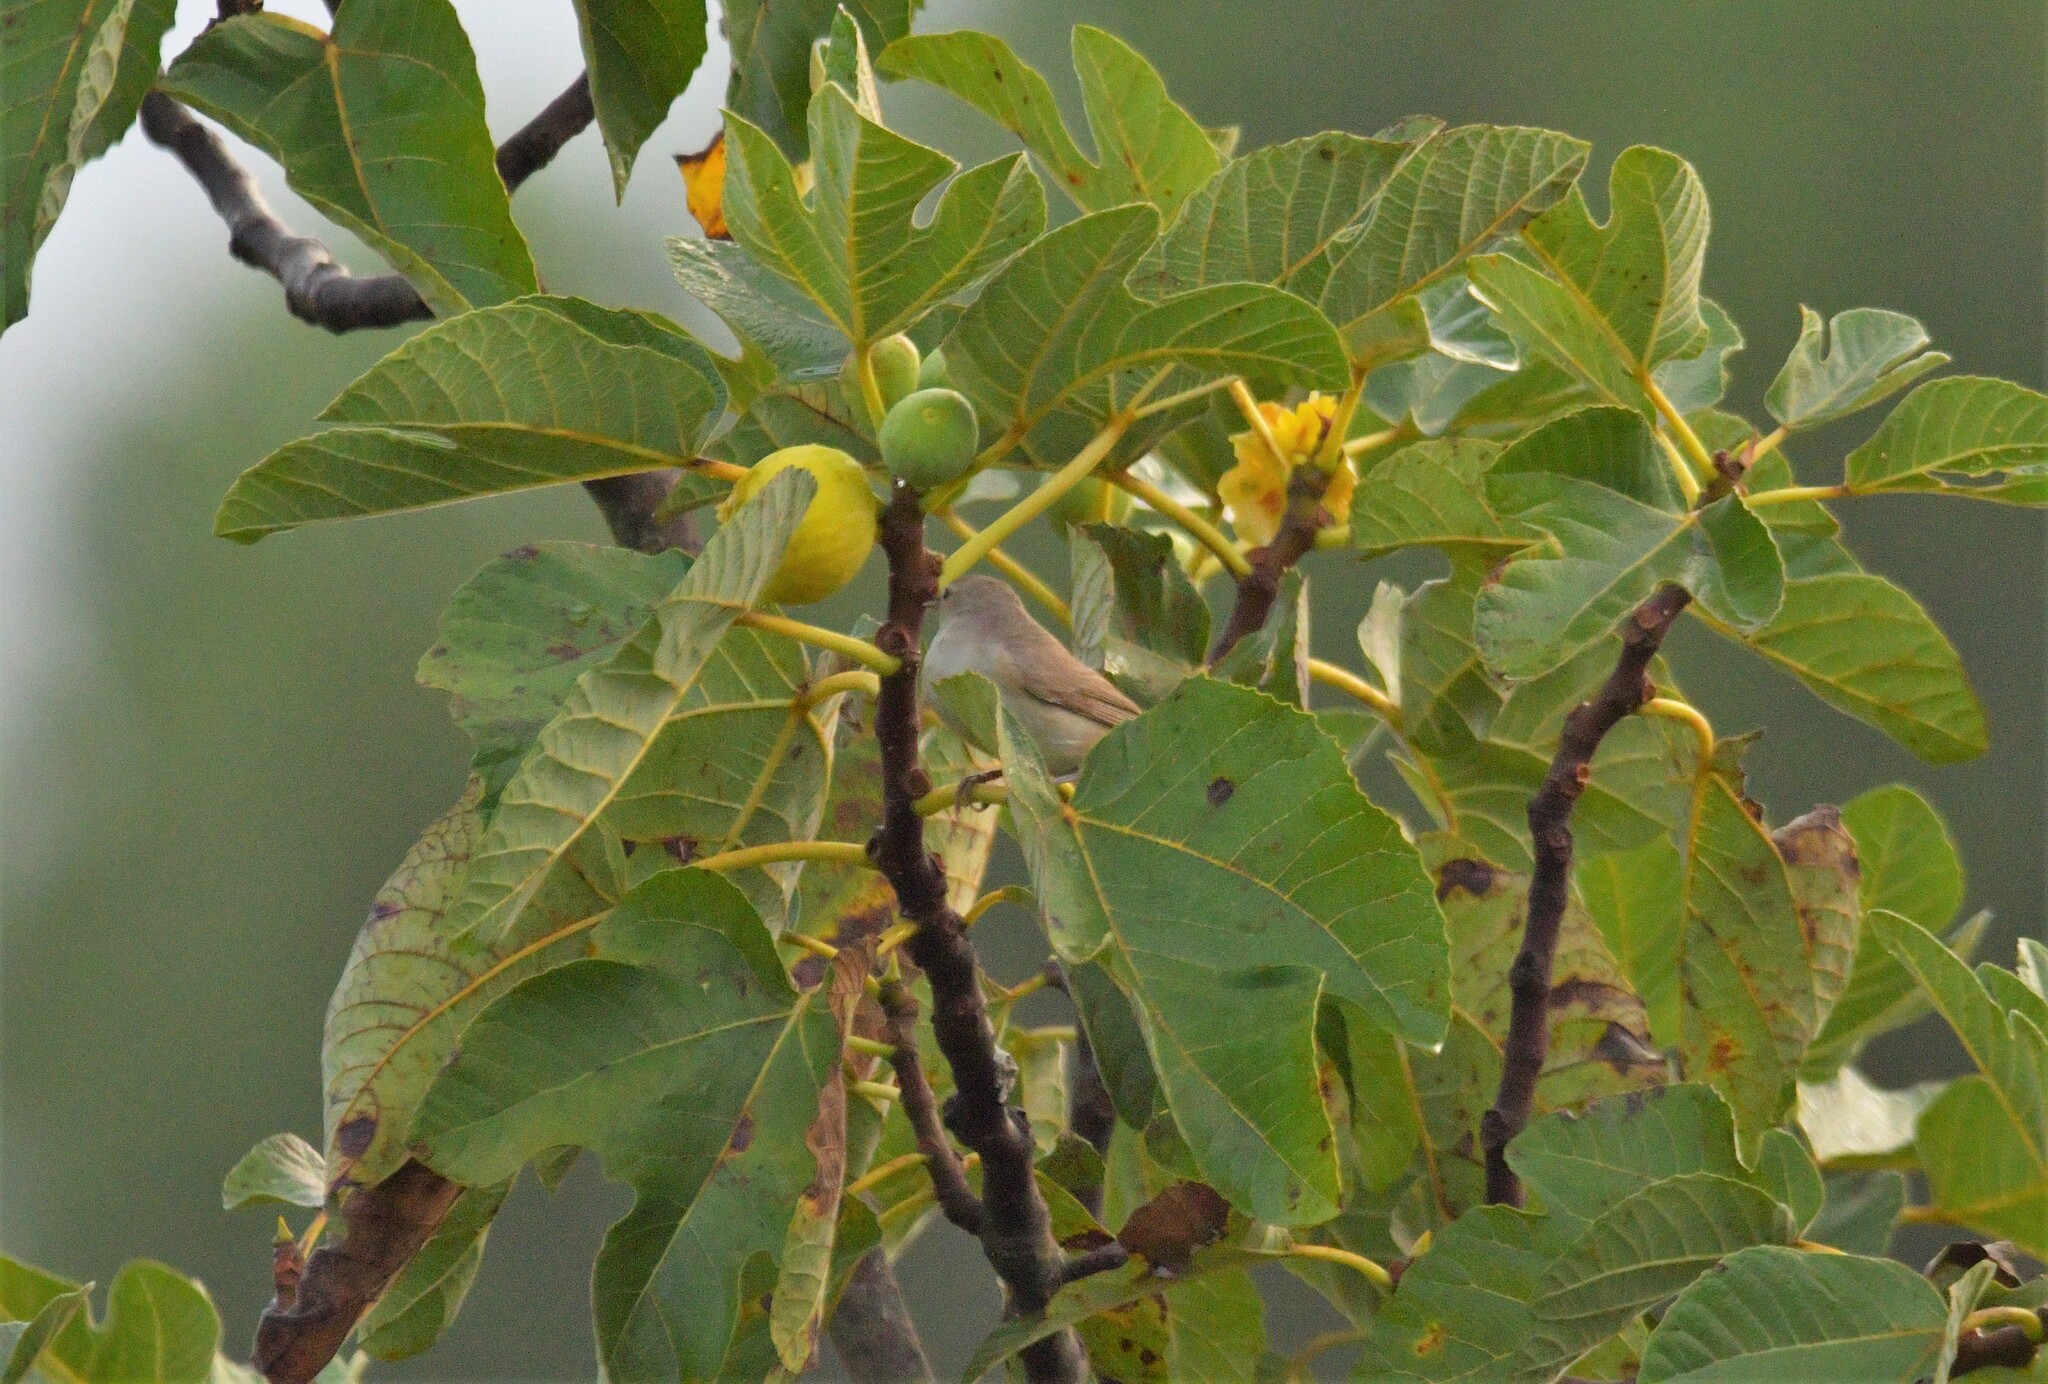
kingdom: Animalia
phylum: Chordata
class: Aves
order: Passeriformes
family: Sylviidae
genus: Sylvia
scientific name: Sylvia borin
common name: Garden warbler
